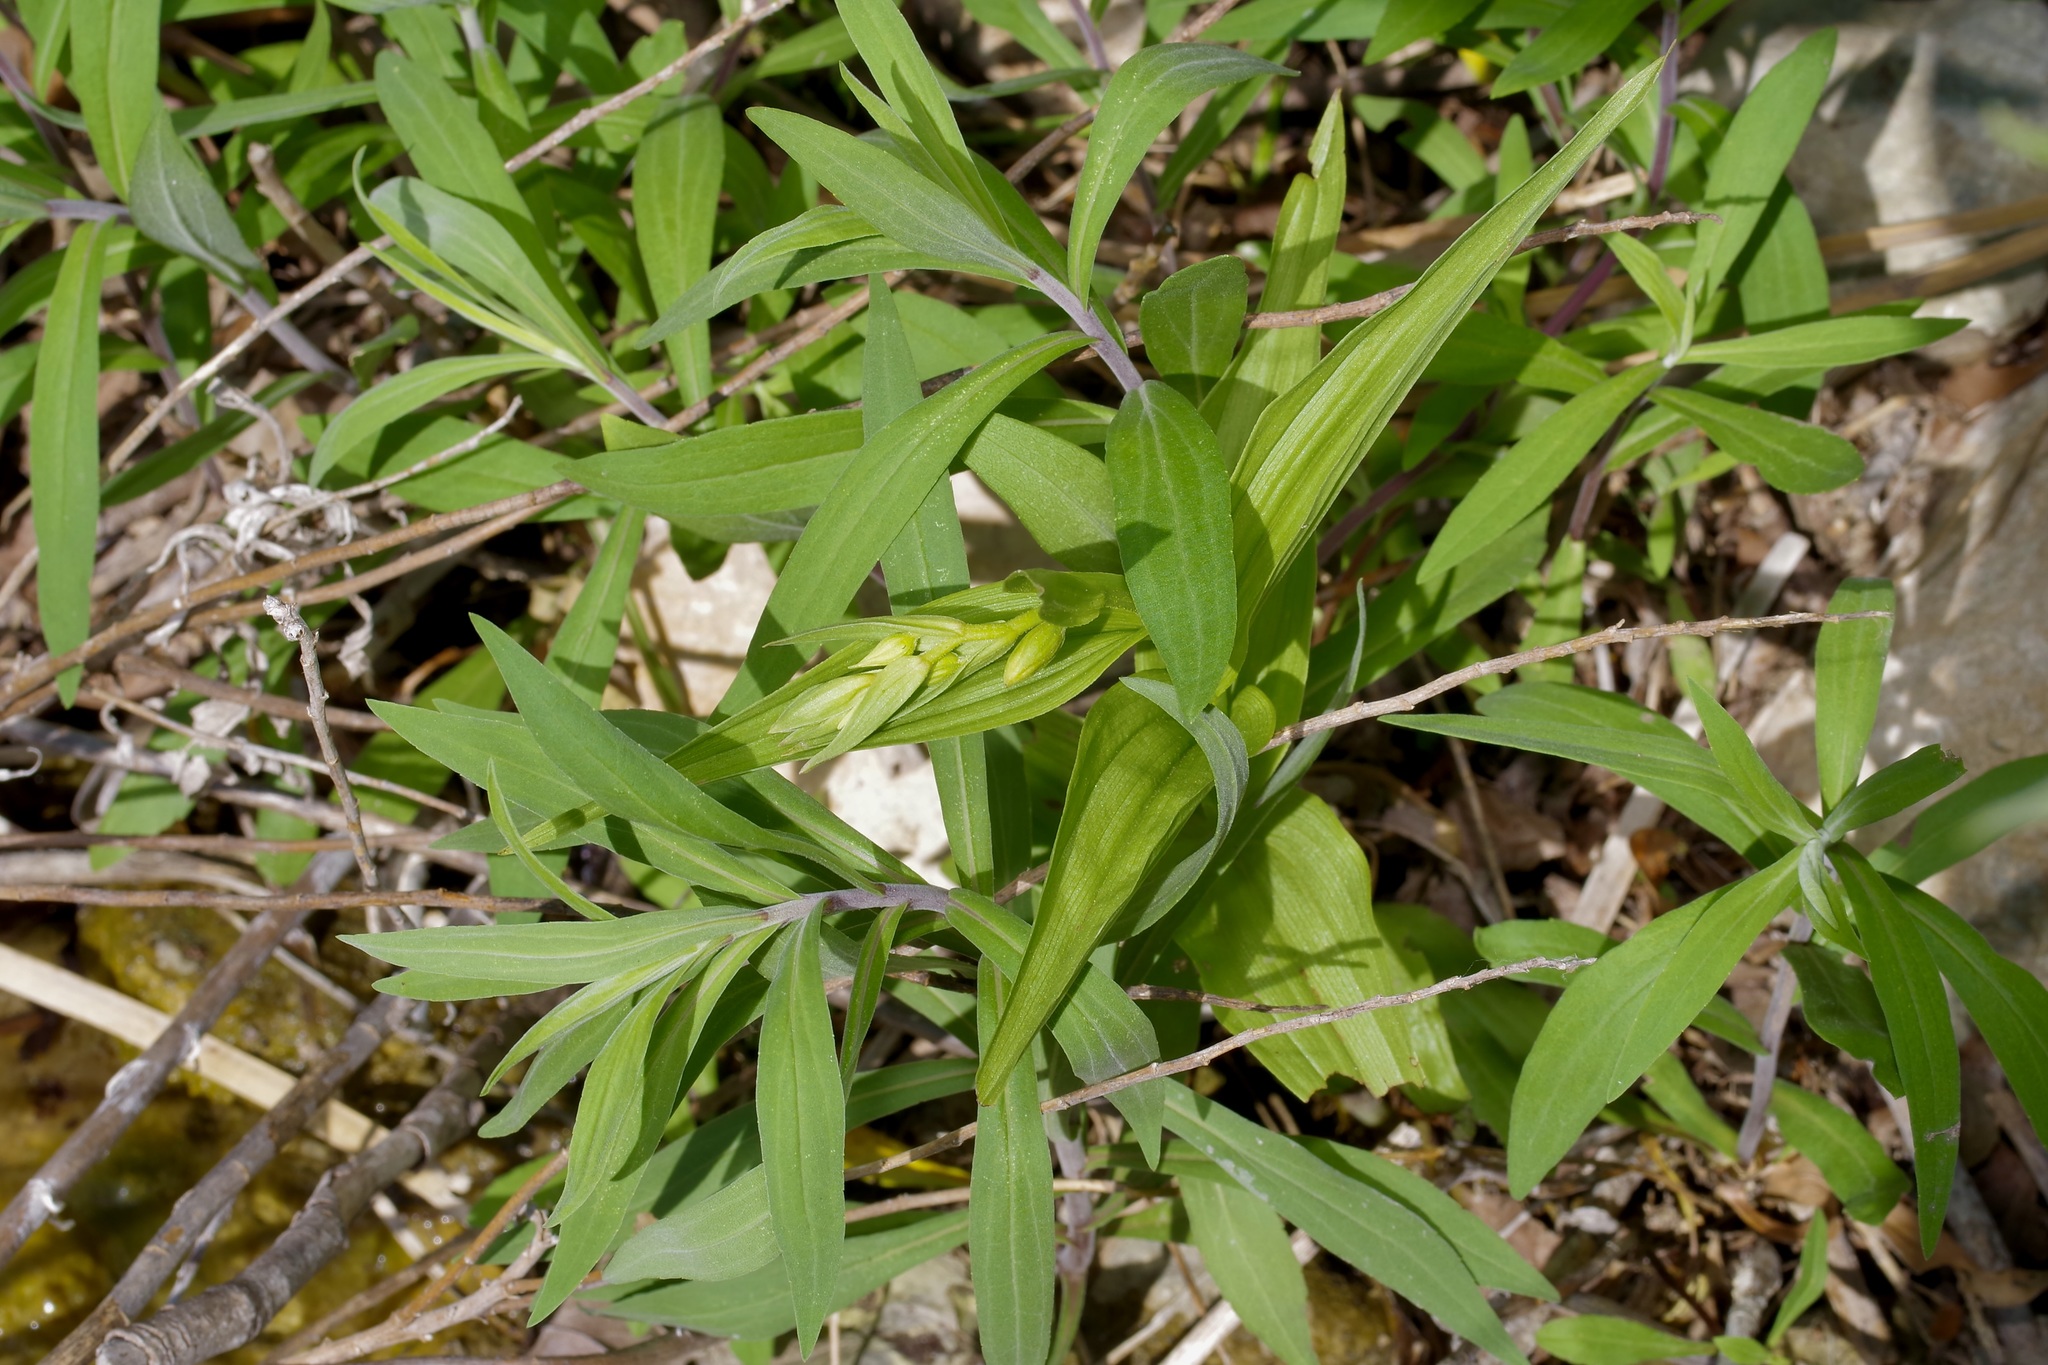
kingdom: Plantae
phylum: Tracheophyta
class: Liliopsida
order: Asparagales
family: Orchidaceae
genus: Epipactis
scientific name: Epipactis gigantea
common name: Chatterbox
